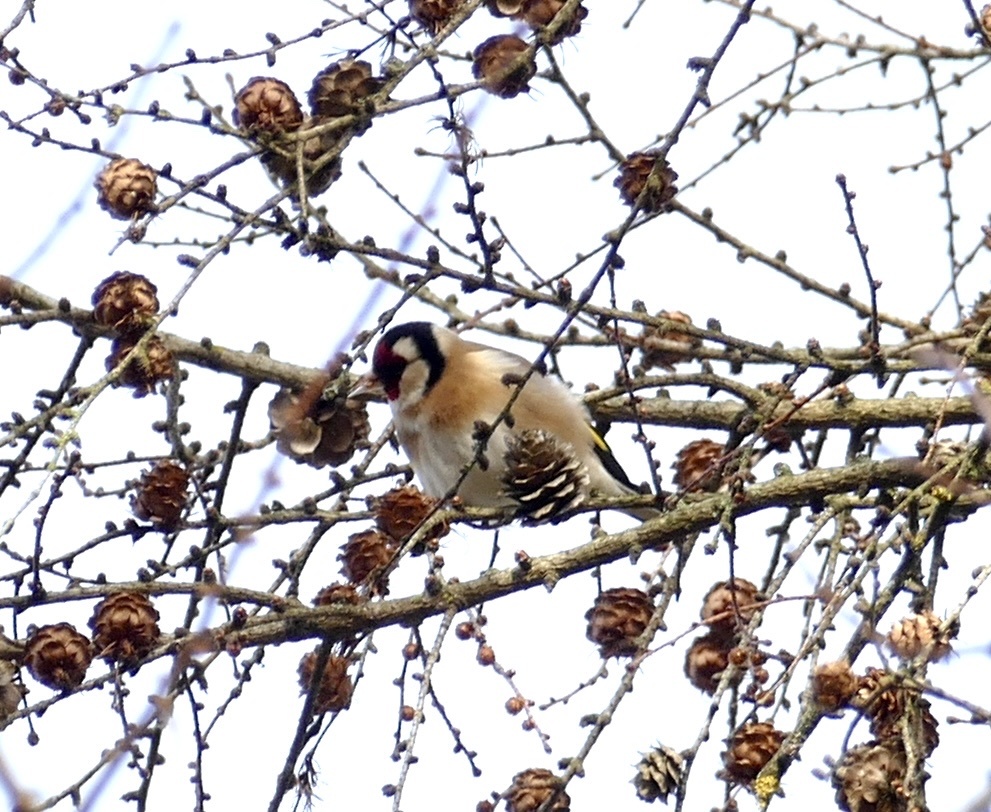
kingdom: Animalia
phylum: Chordata
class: Aves
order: Passeriformes
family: Fringillidae
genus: Carduelis
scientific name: Carduelis carduelis
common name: European goldfinch
